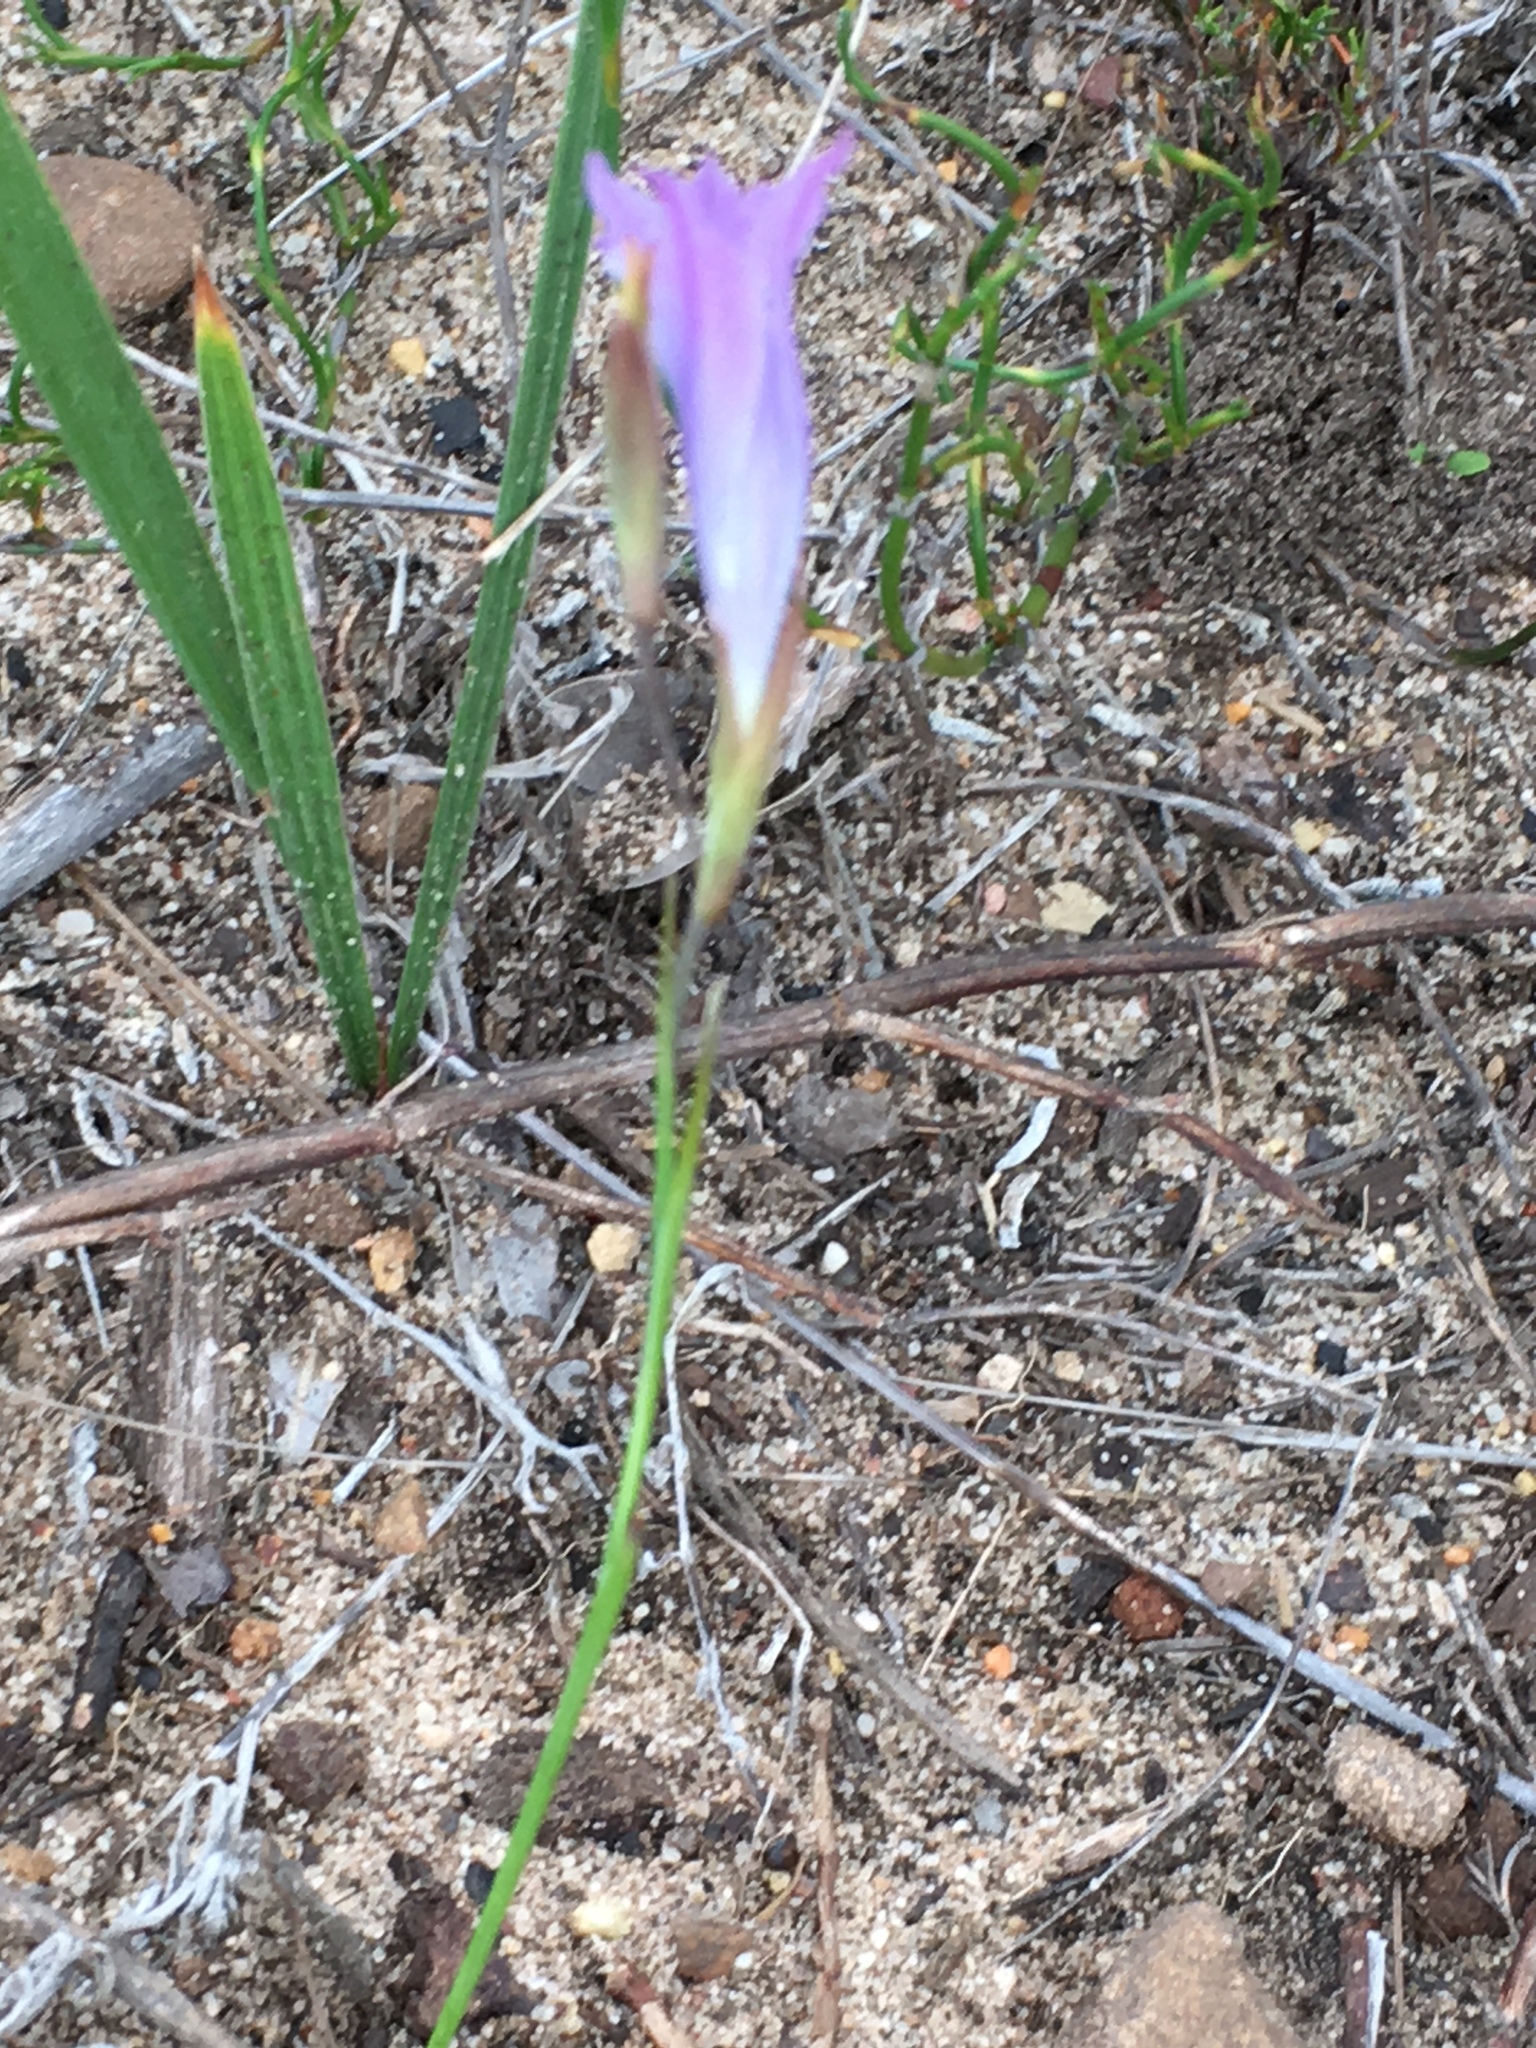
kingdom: Plantae
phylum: Tracheophyta
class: Liliopsida
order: Asparagales
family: Iridaceae
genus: Gladiolus
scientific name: Gladiolus gracilis
